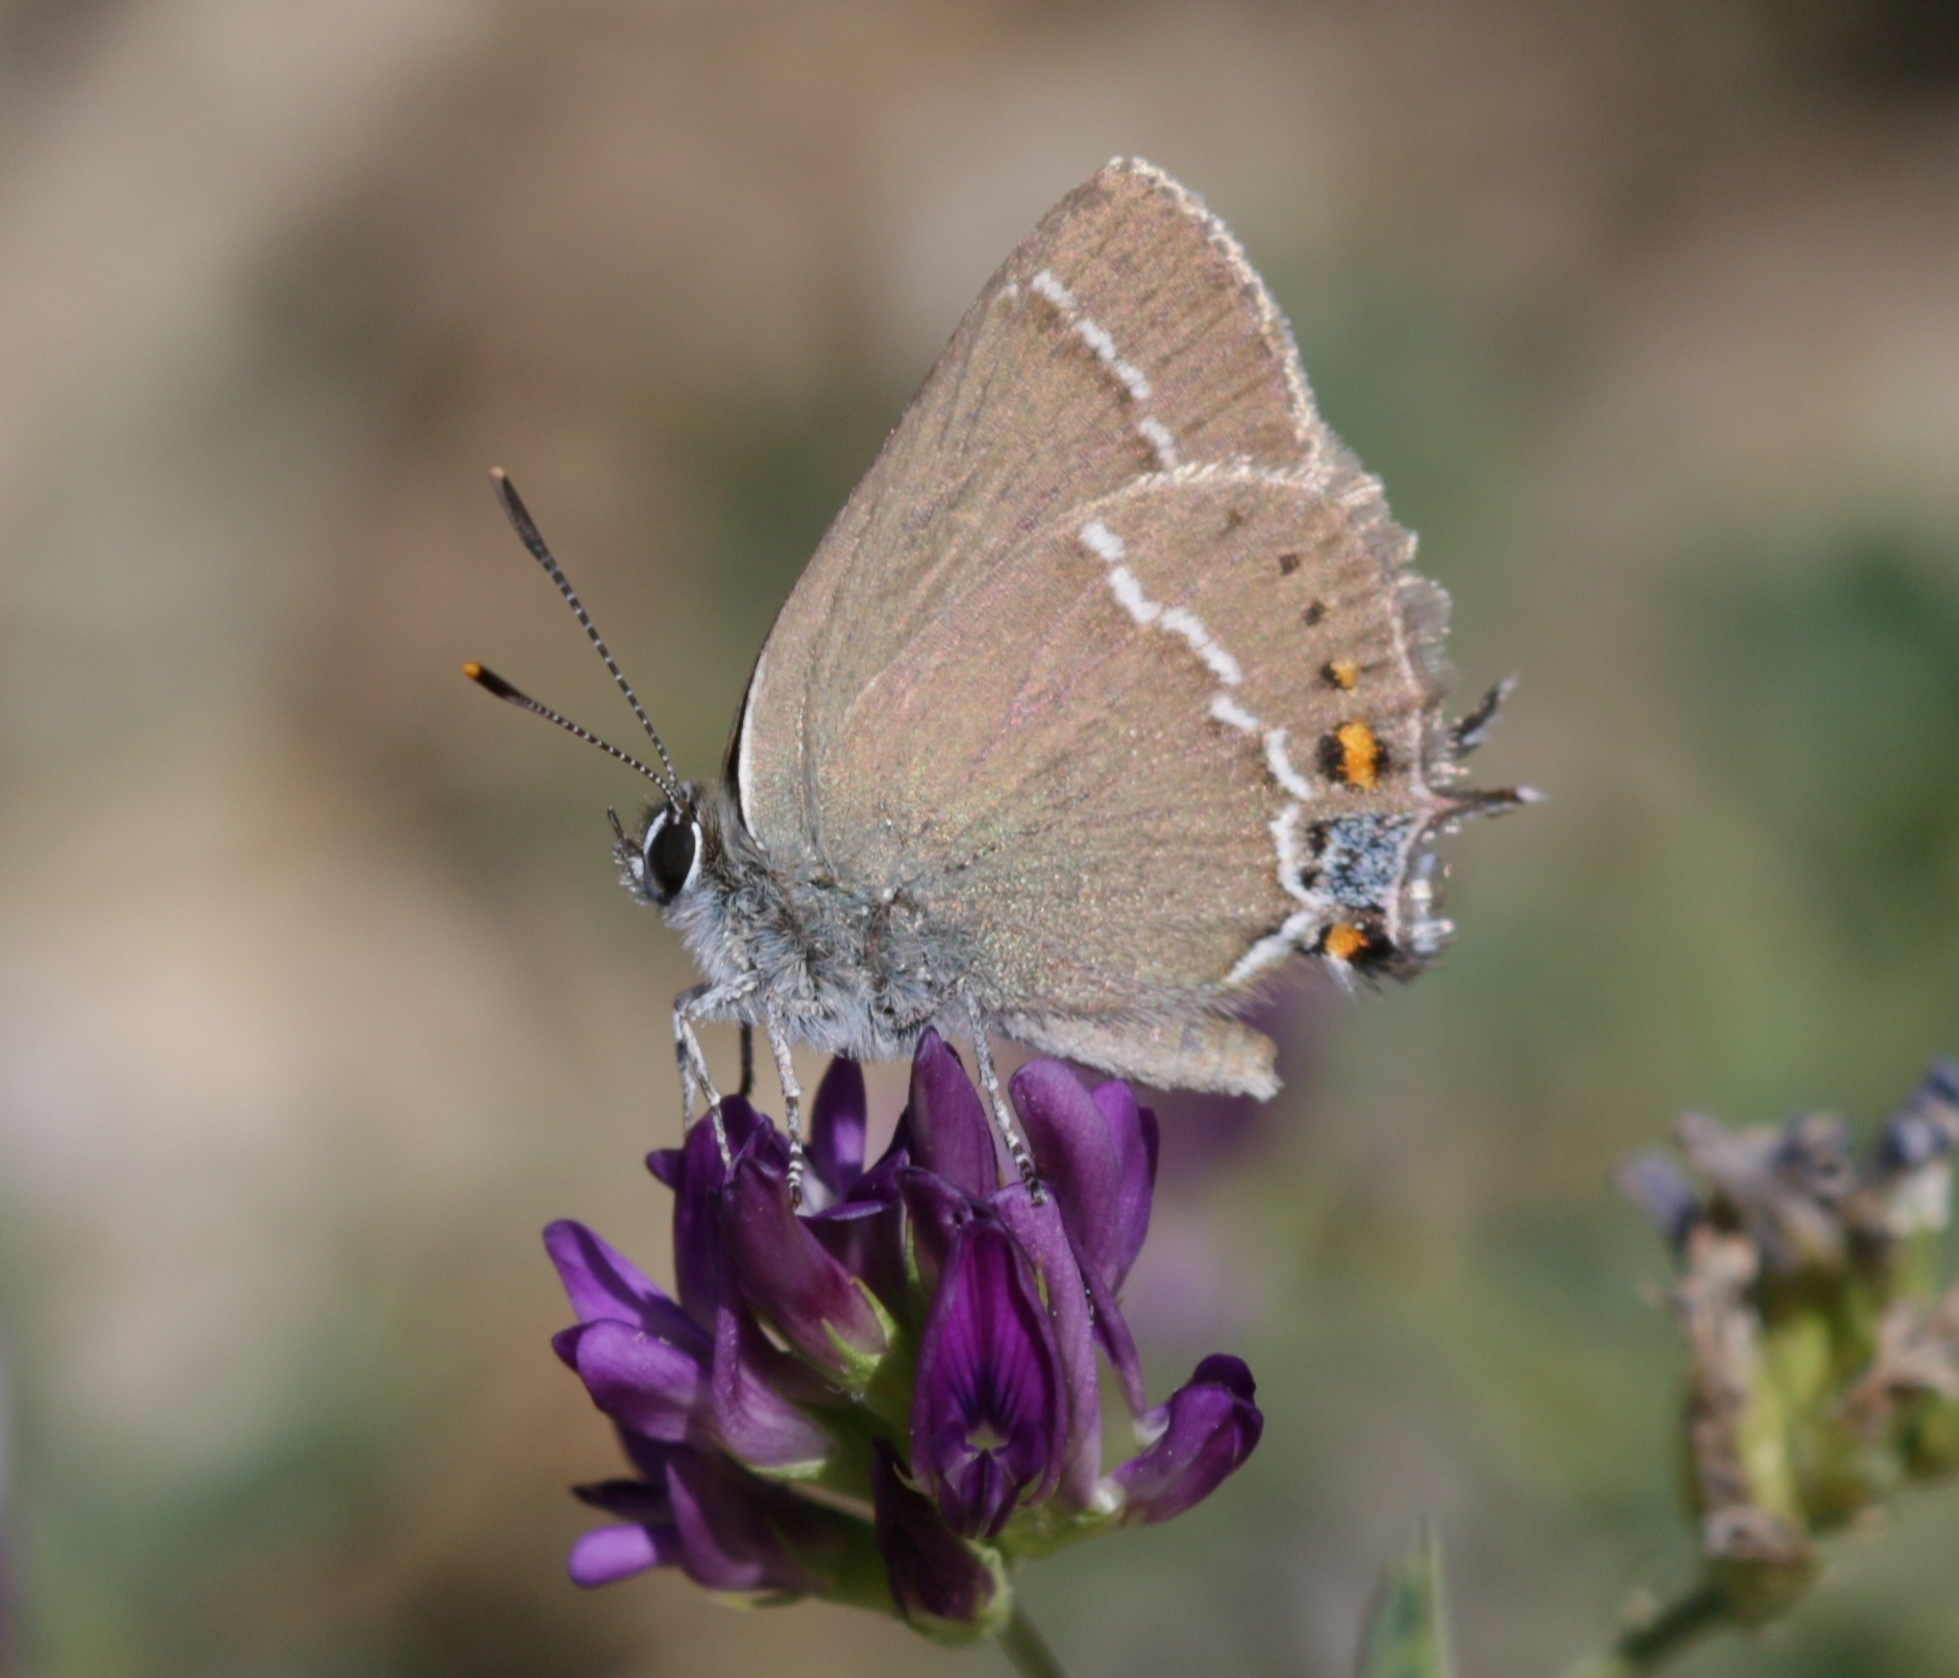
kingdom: Animalia
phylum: Arthropoda
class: Insecta
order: Lepidoptera
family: Lycaenidae
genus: Tuttiola
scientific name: Tuttiola spini
